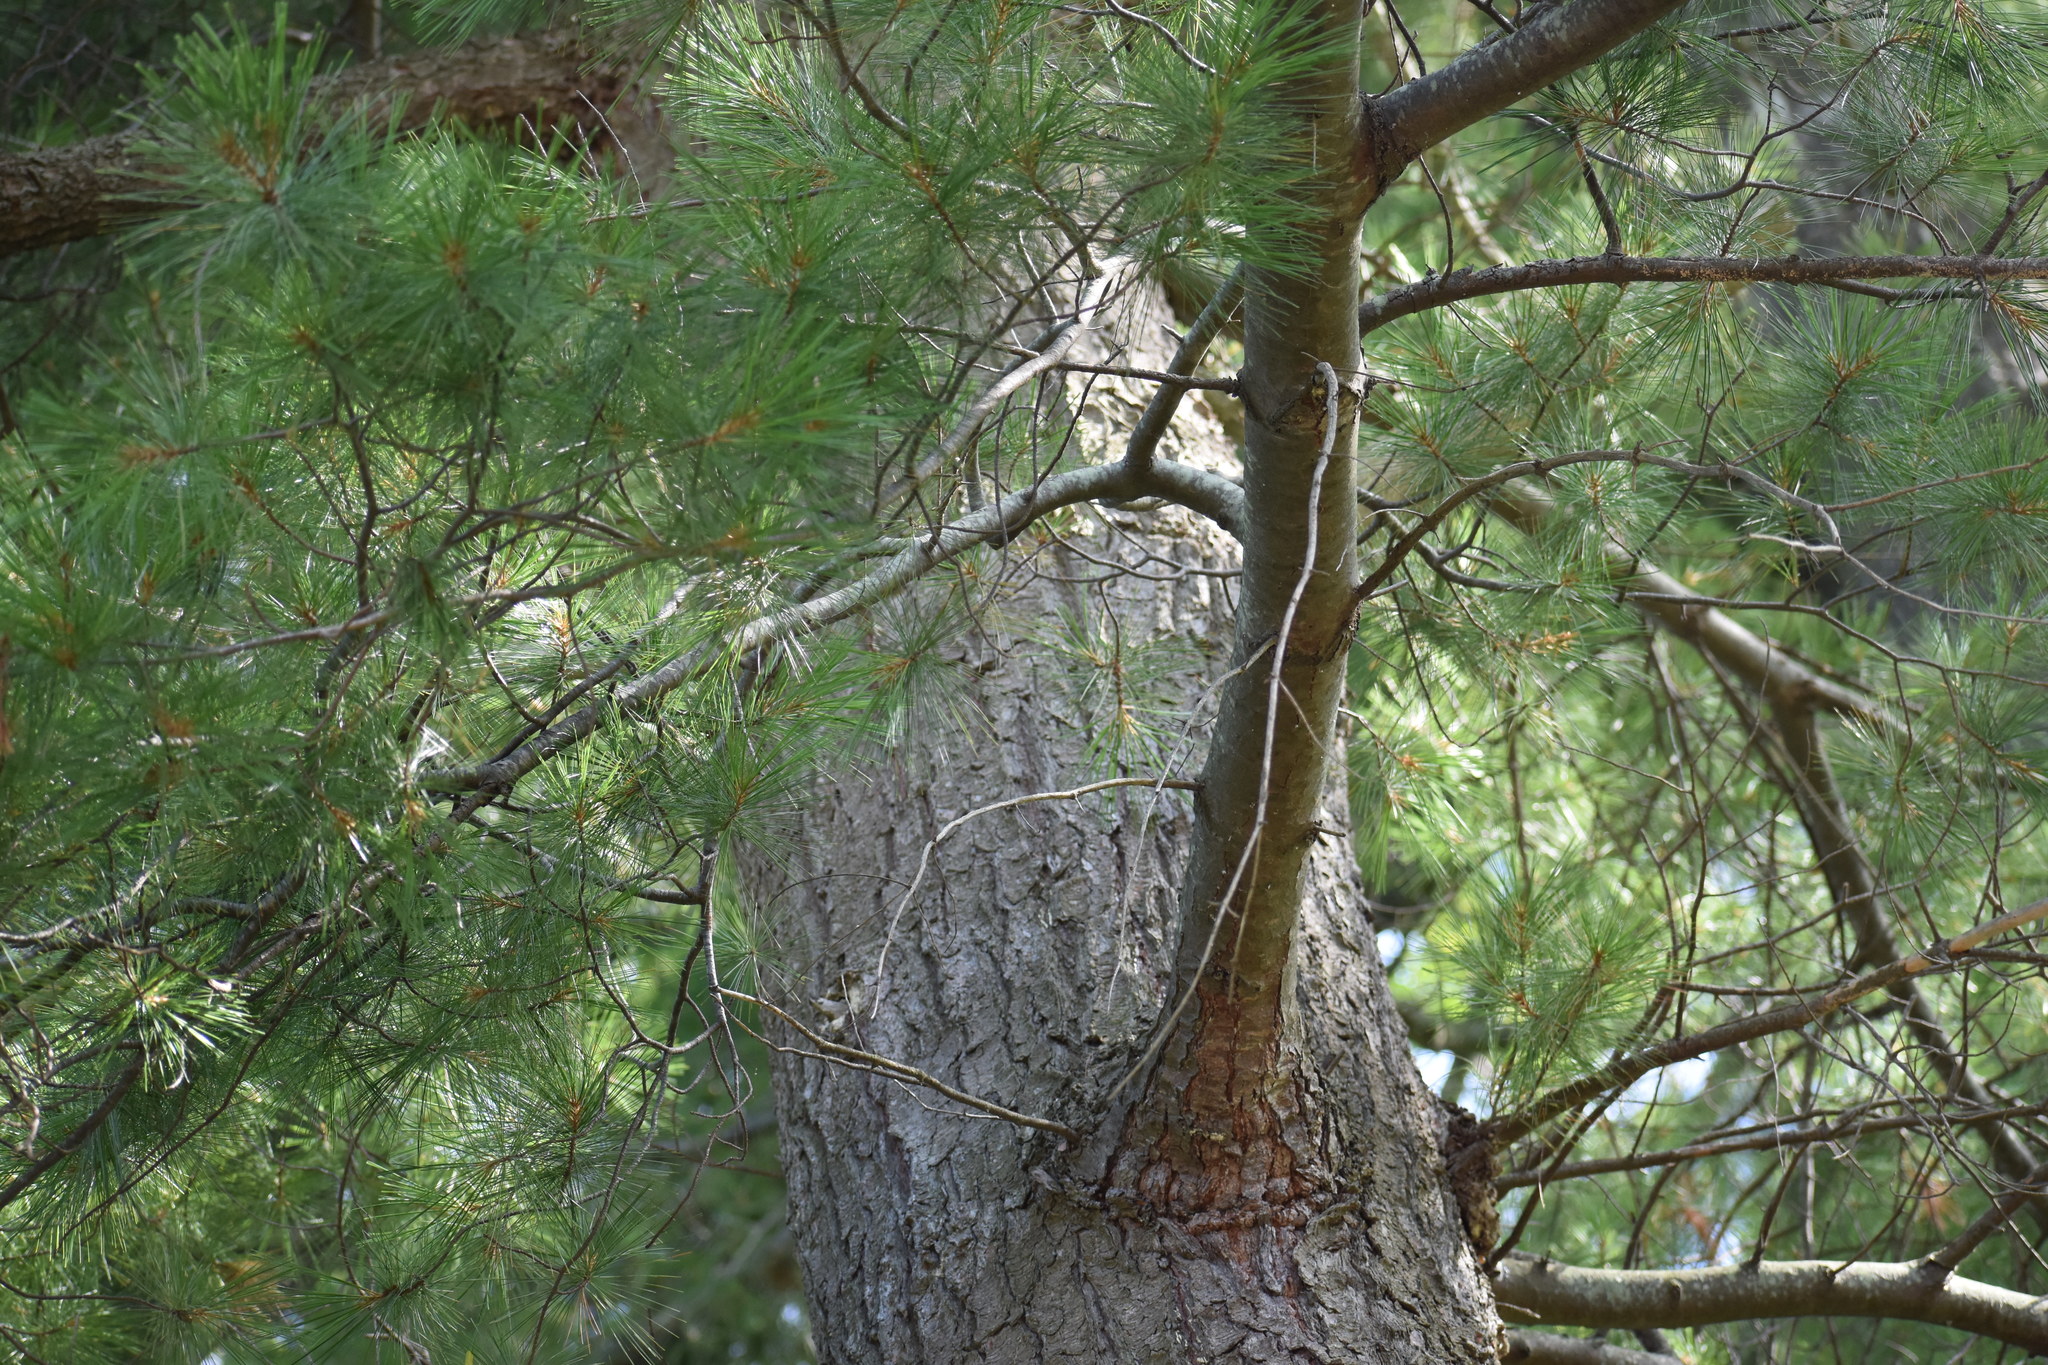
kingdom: Plantae
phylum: Tracheophyta
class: Pinopsida
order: Pinales
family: Pinaceae
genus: Pinus
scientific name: Pinus strobus
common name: Weymouth pine
